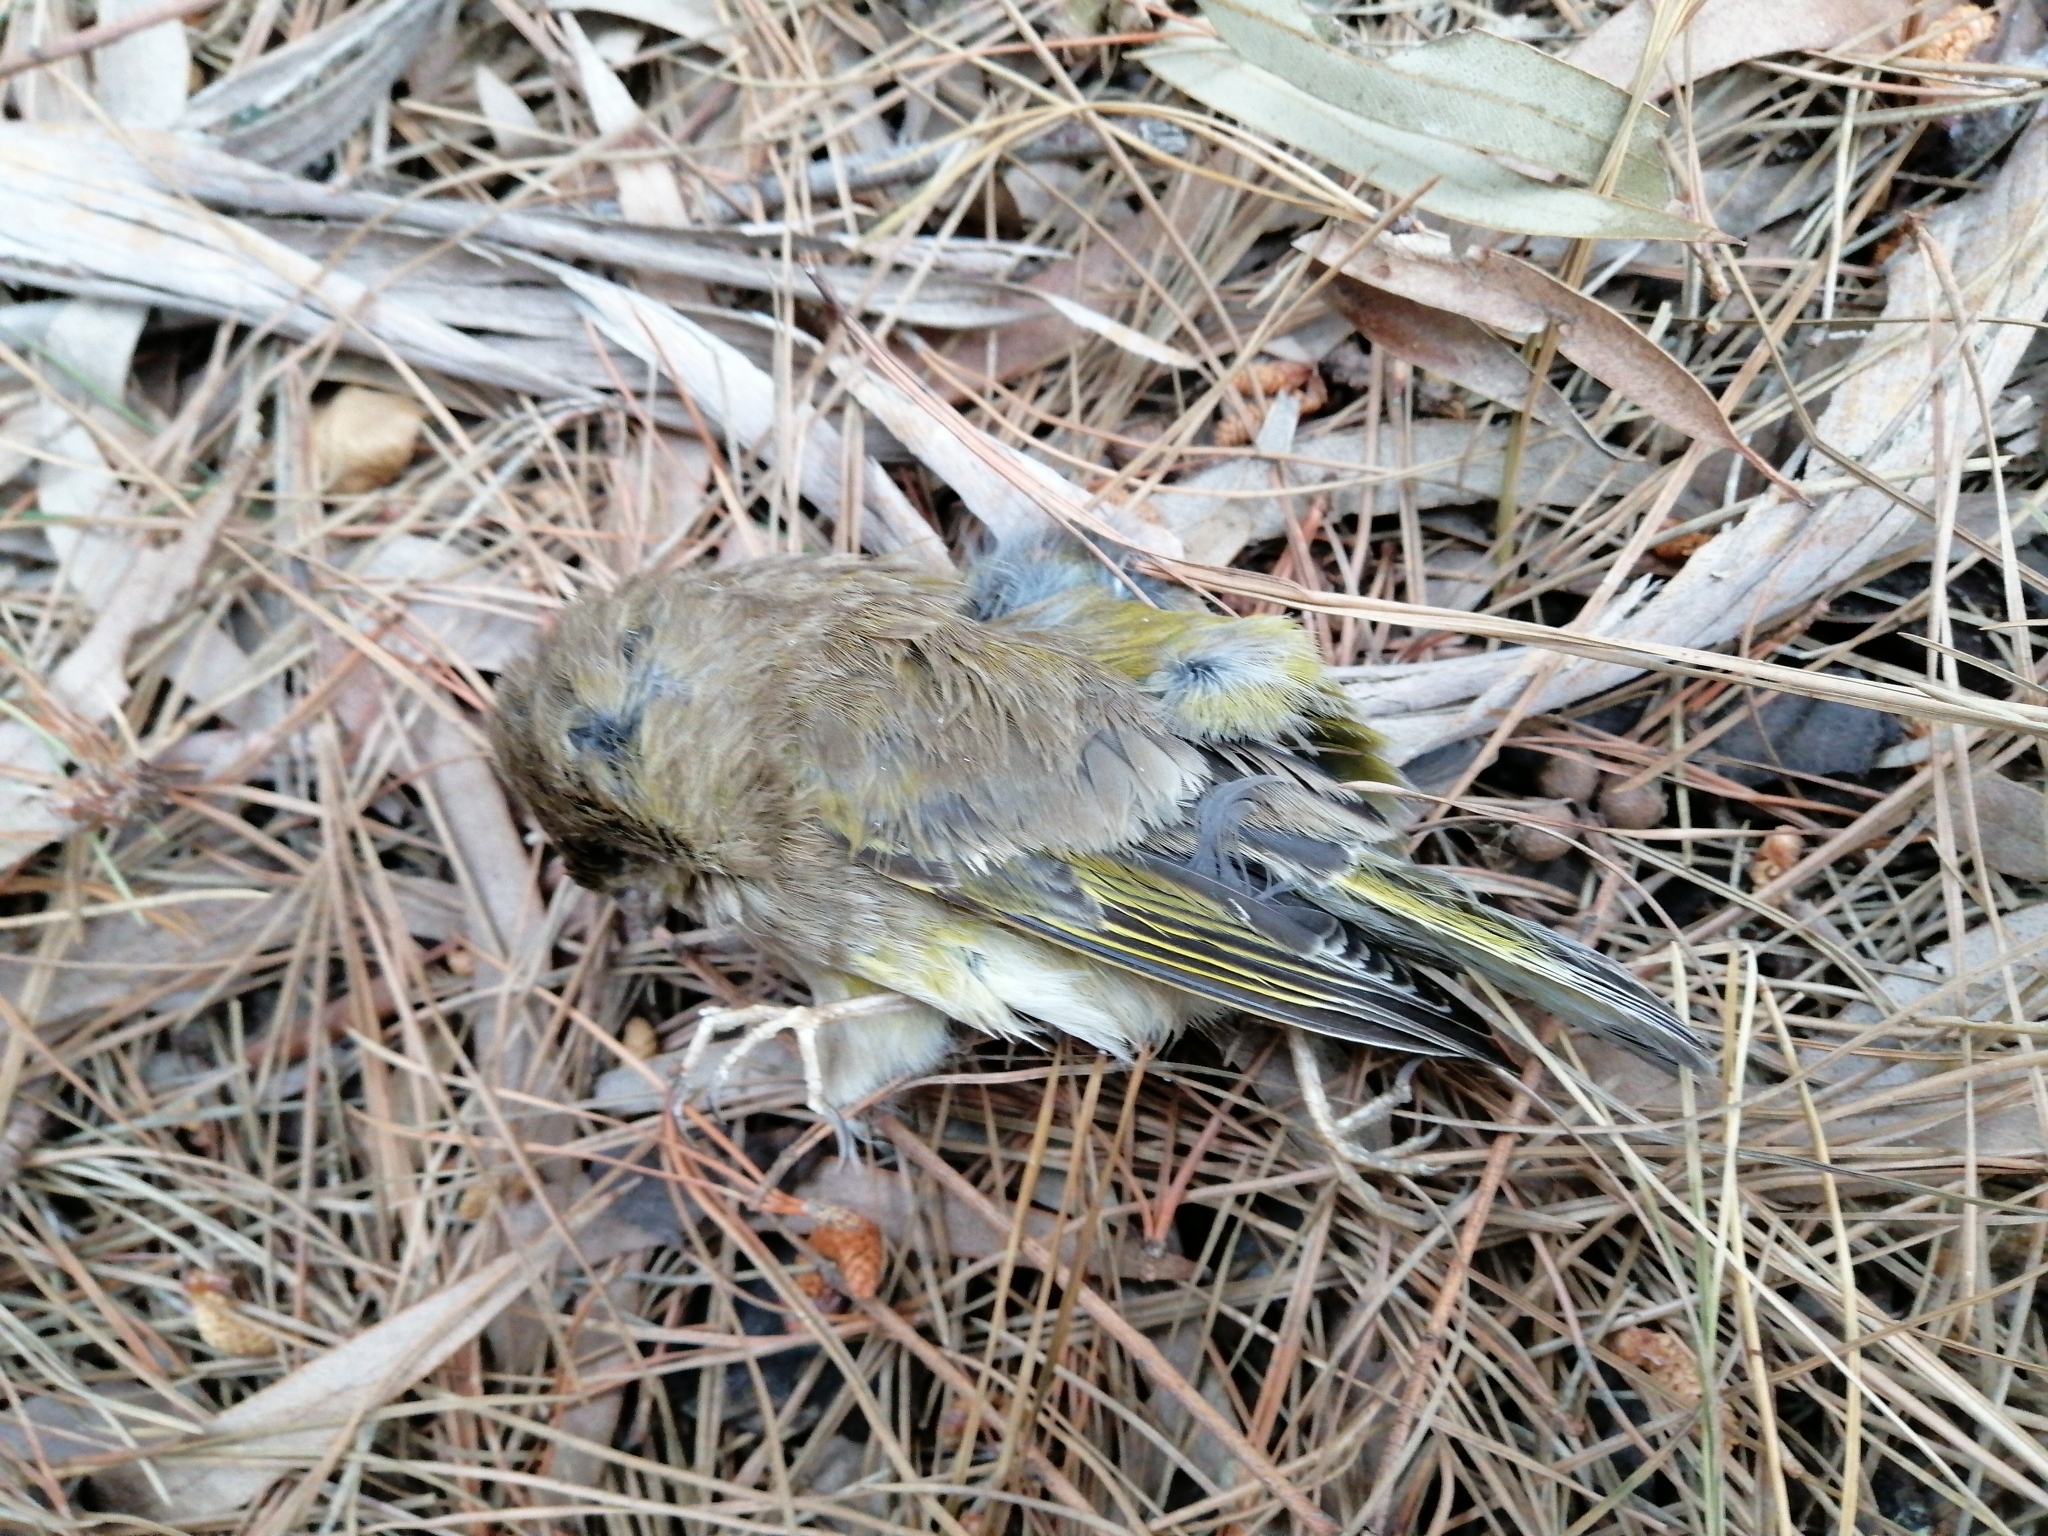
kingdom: Plantae
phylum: Tracheophyta
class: Liliopsida
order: Poales
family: Poaceae
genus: Chloris
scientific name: Chloris chloris
